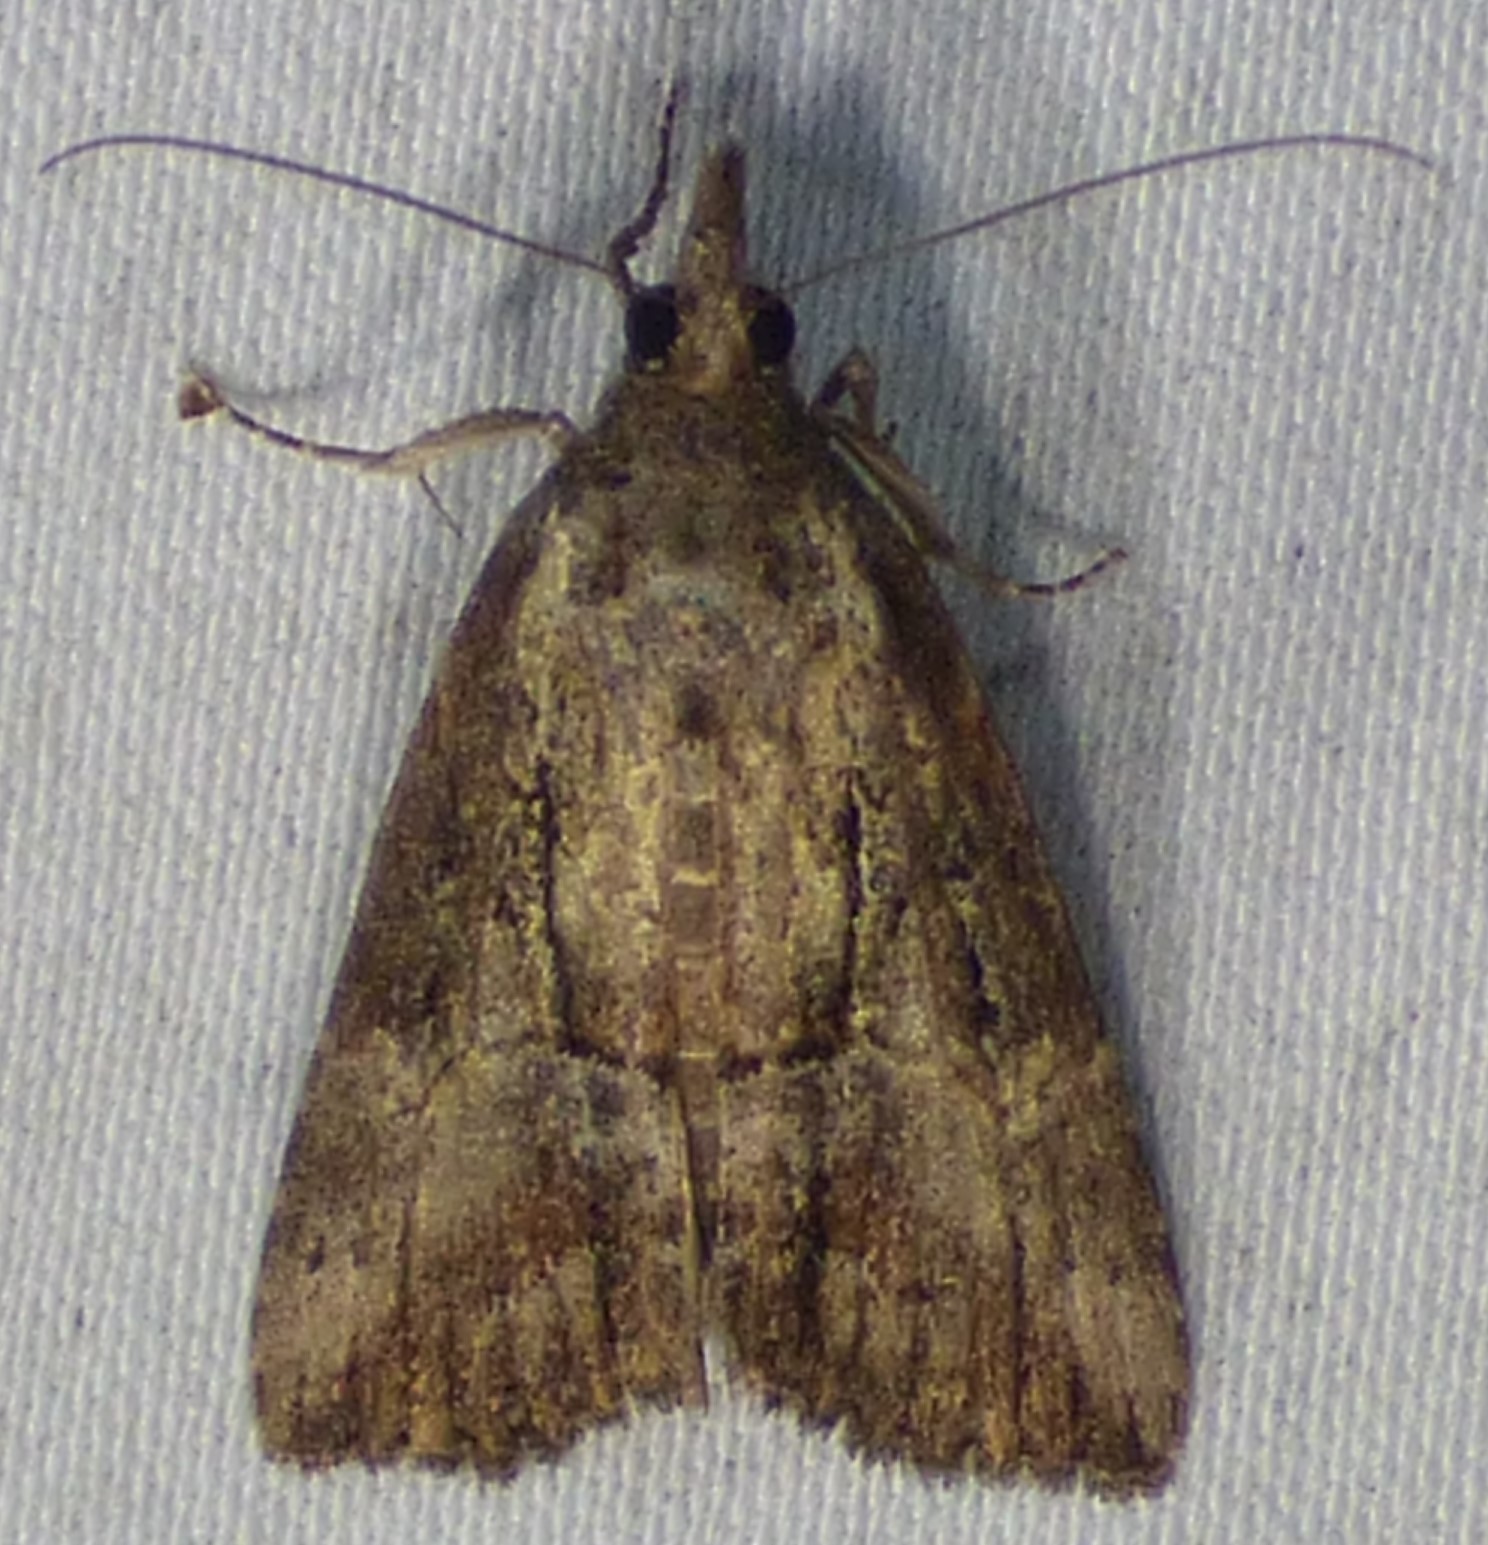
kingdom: Animalia
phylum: Arthropoda
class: Insecta
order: Lepidoptera
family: Erebidae
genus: Hypena
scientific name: Hypena scabra
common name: Green cloverworm
